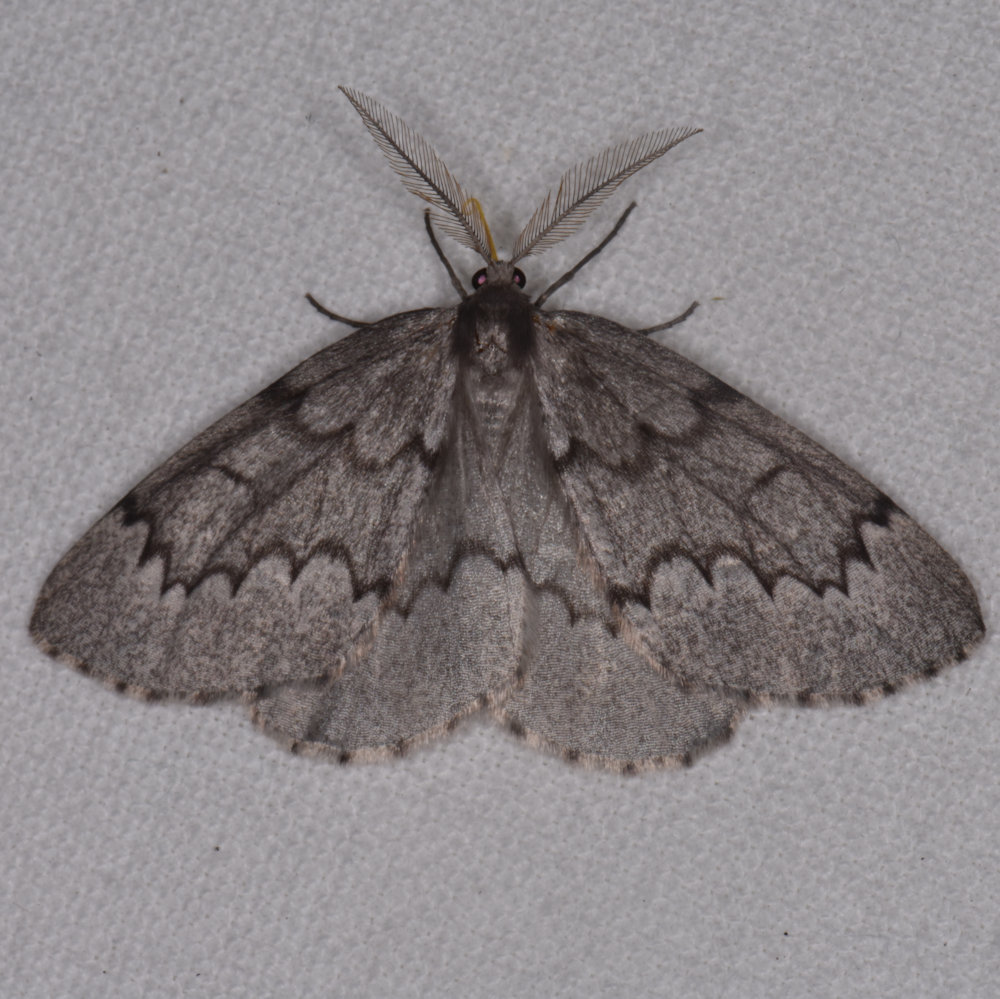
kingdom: Animalia
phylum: Arthropoda
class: Insecta
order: Lepidoptera
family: Geometridae
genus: Nepytia
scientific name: Nepytia pellucidaria
